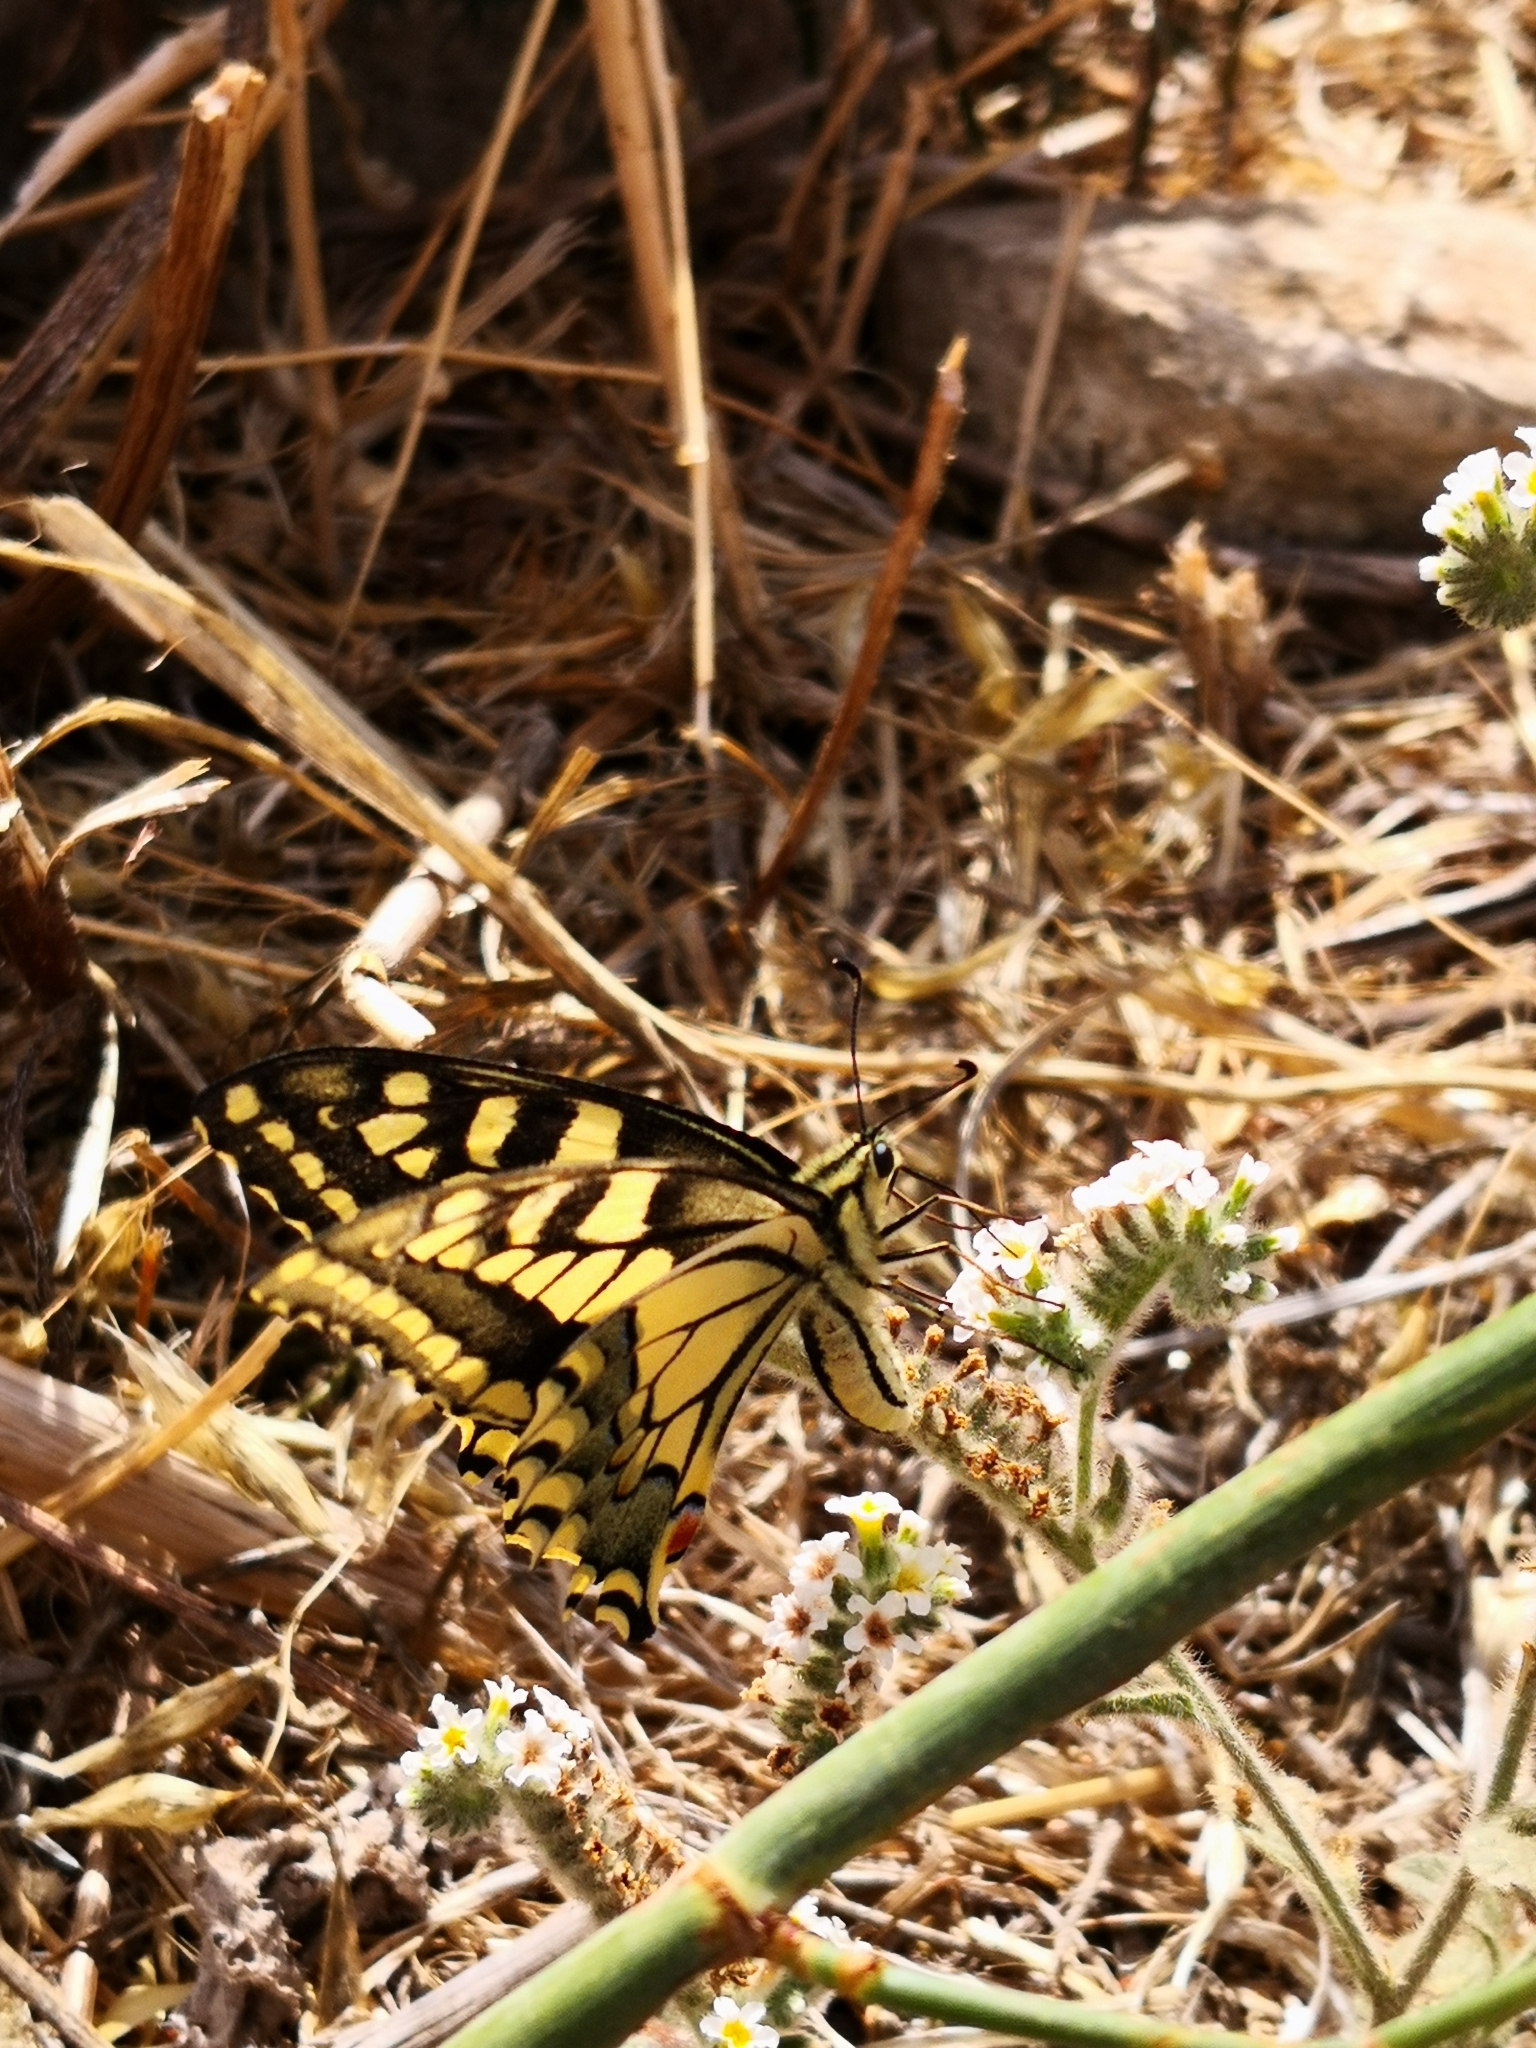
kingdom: Animalia
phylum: Arthropoda
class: Insecta
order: Lepidoptera
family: Papilionidae
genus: Papilio
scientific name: Papilio machaon
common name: Swallowtail
